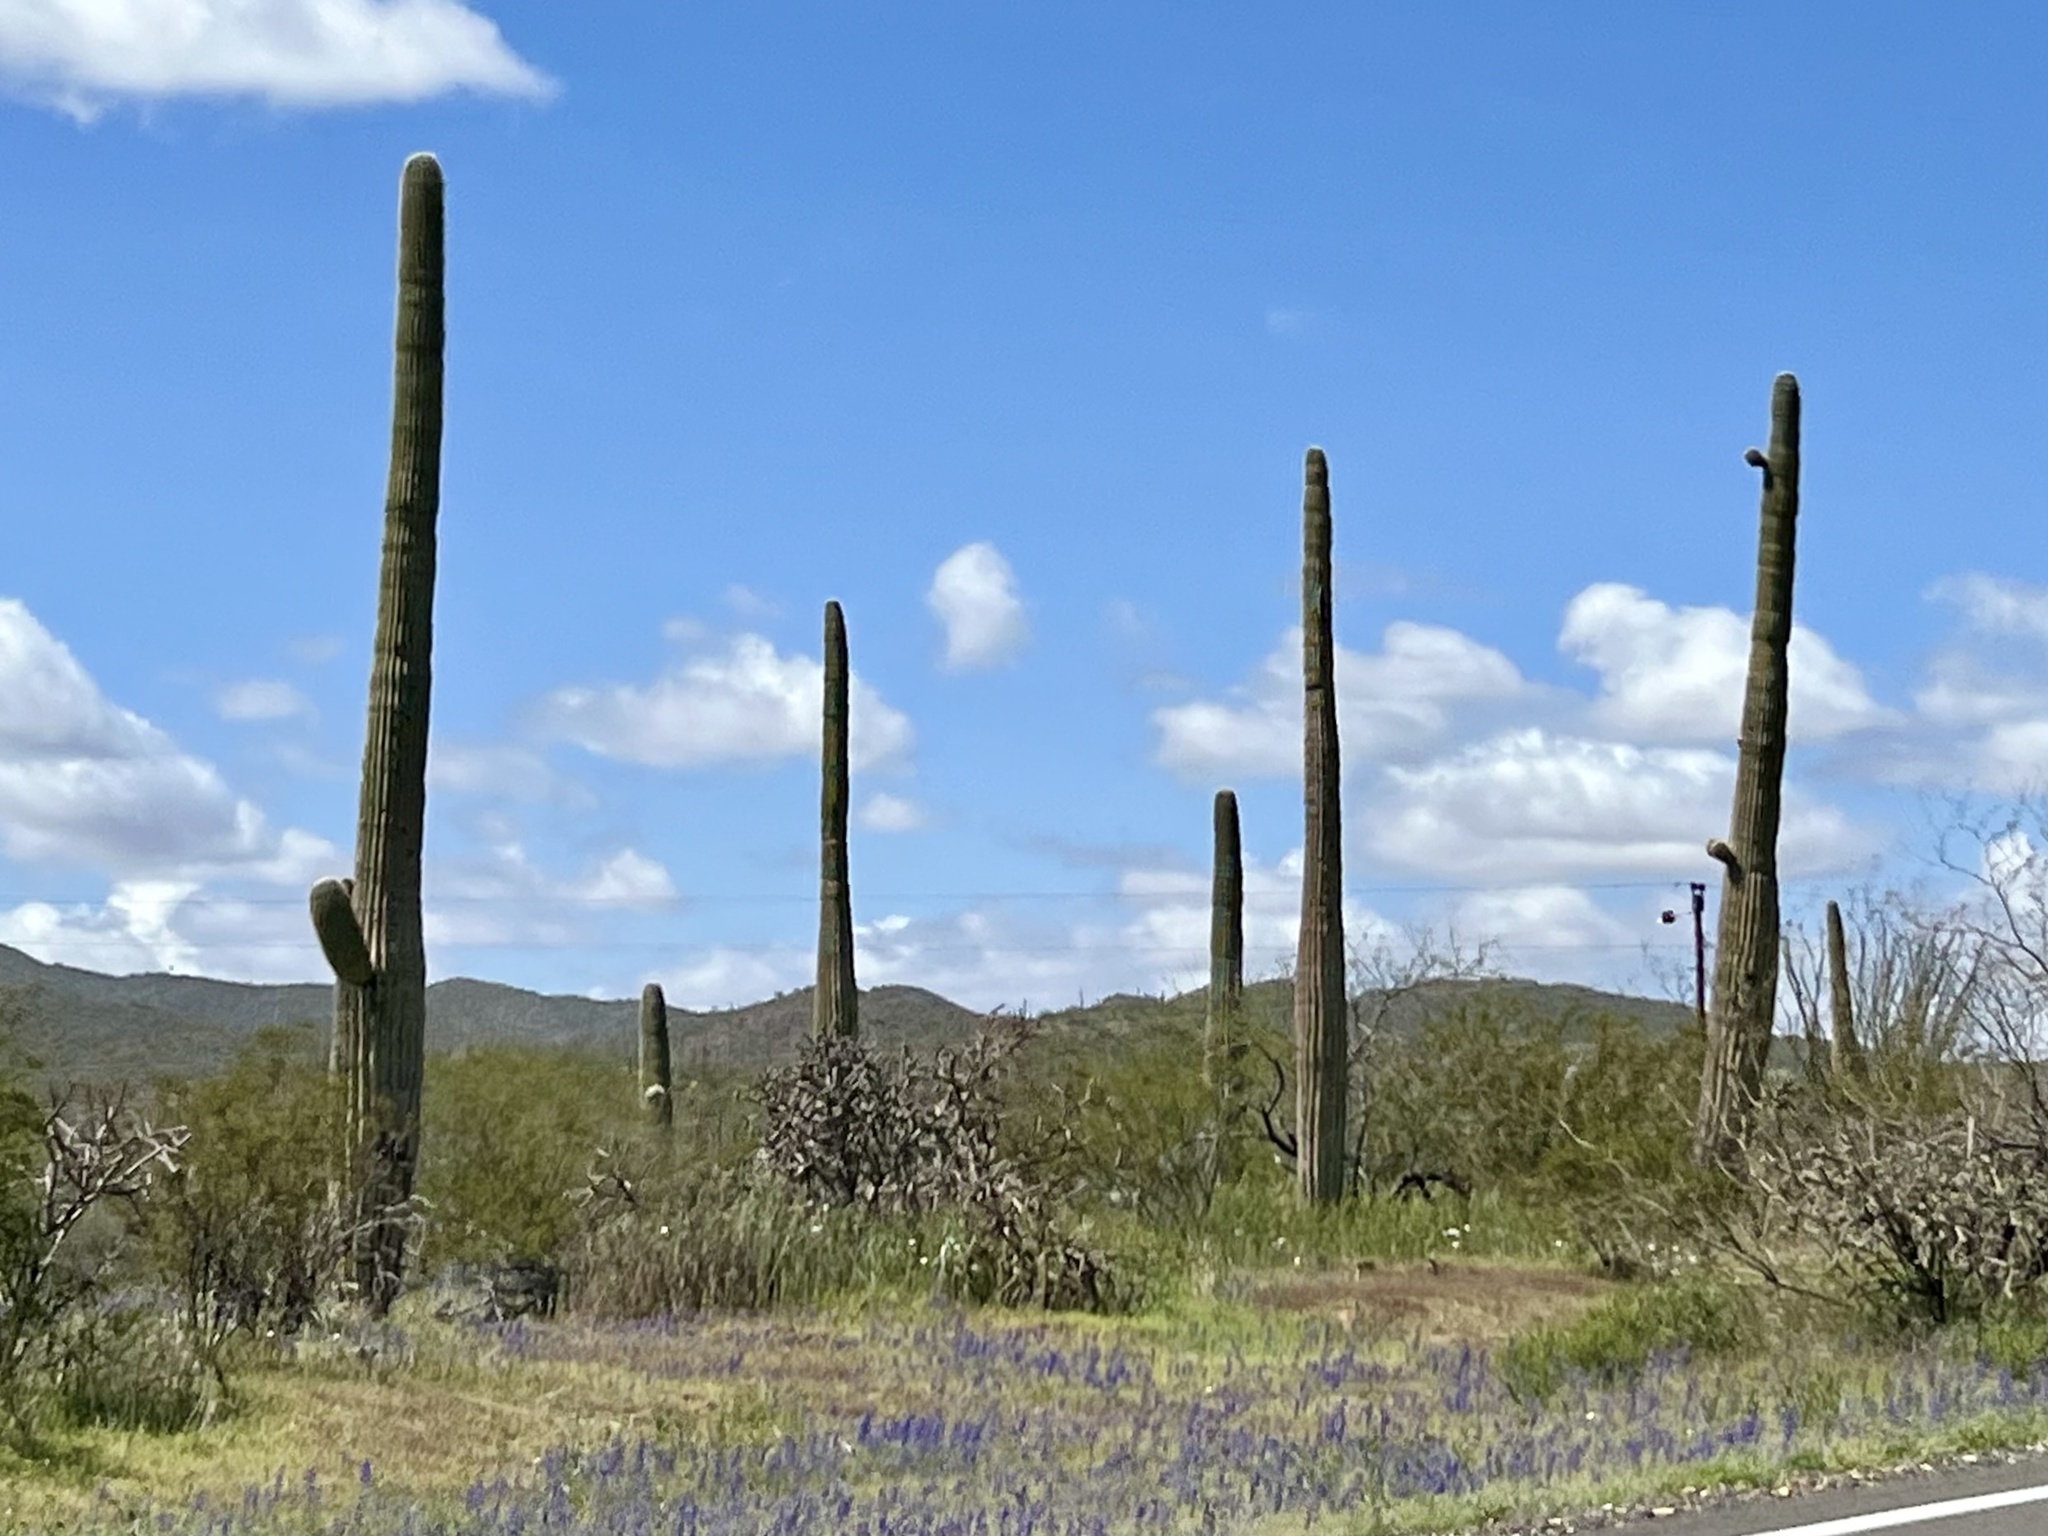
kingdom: Plantae
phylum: Tracheophyta
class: Magnoliopsida
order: Caryophyllales
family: Cactaceae
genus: Carnegiea
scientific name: Carnegiea gigantea
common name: Saguaro
